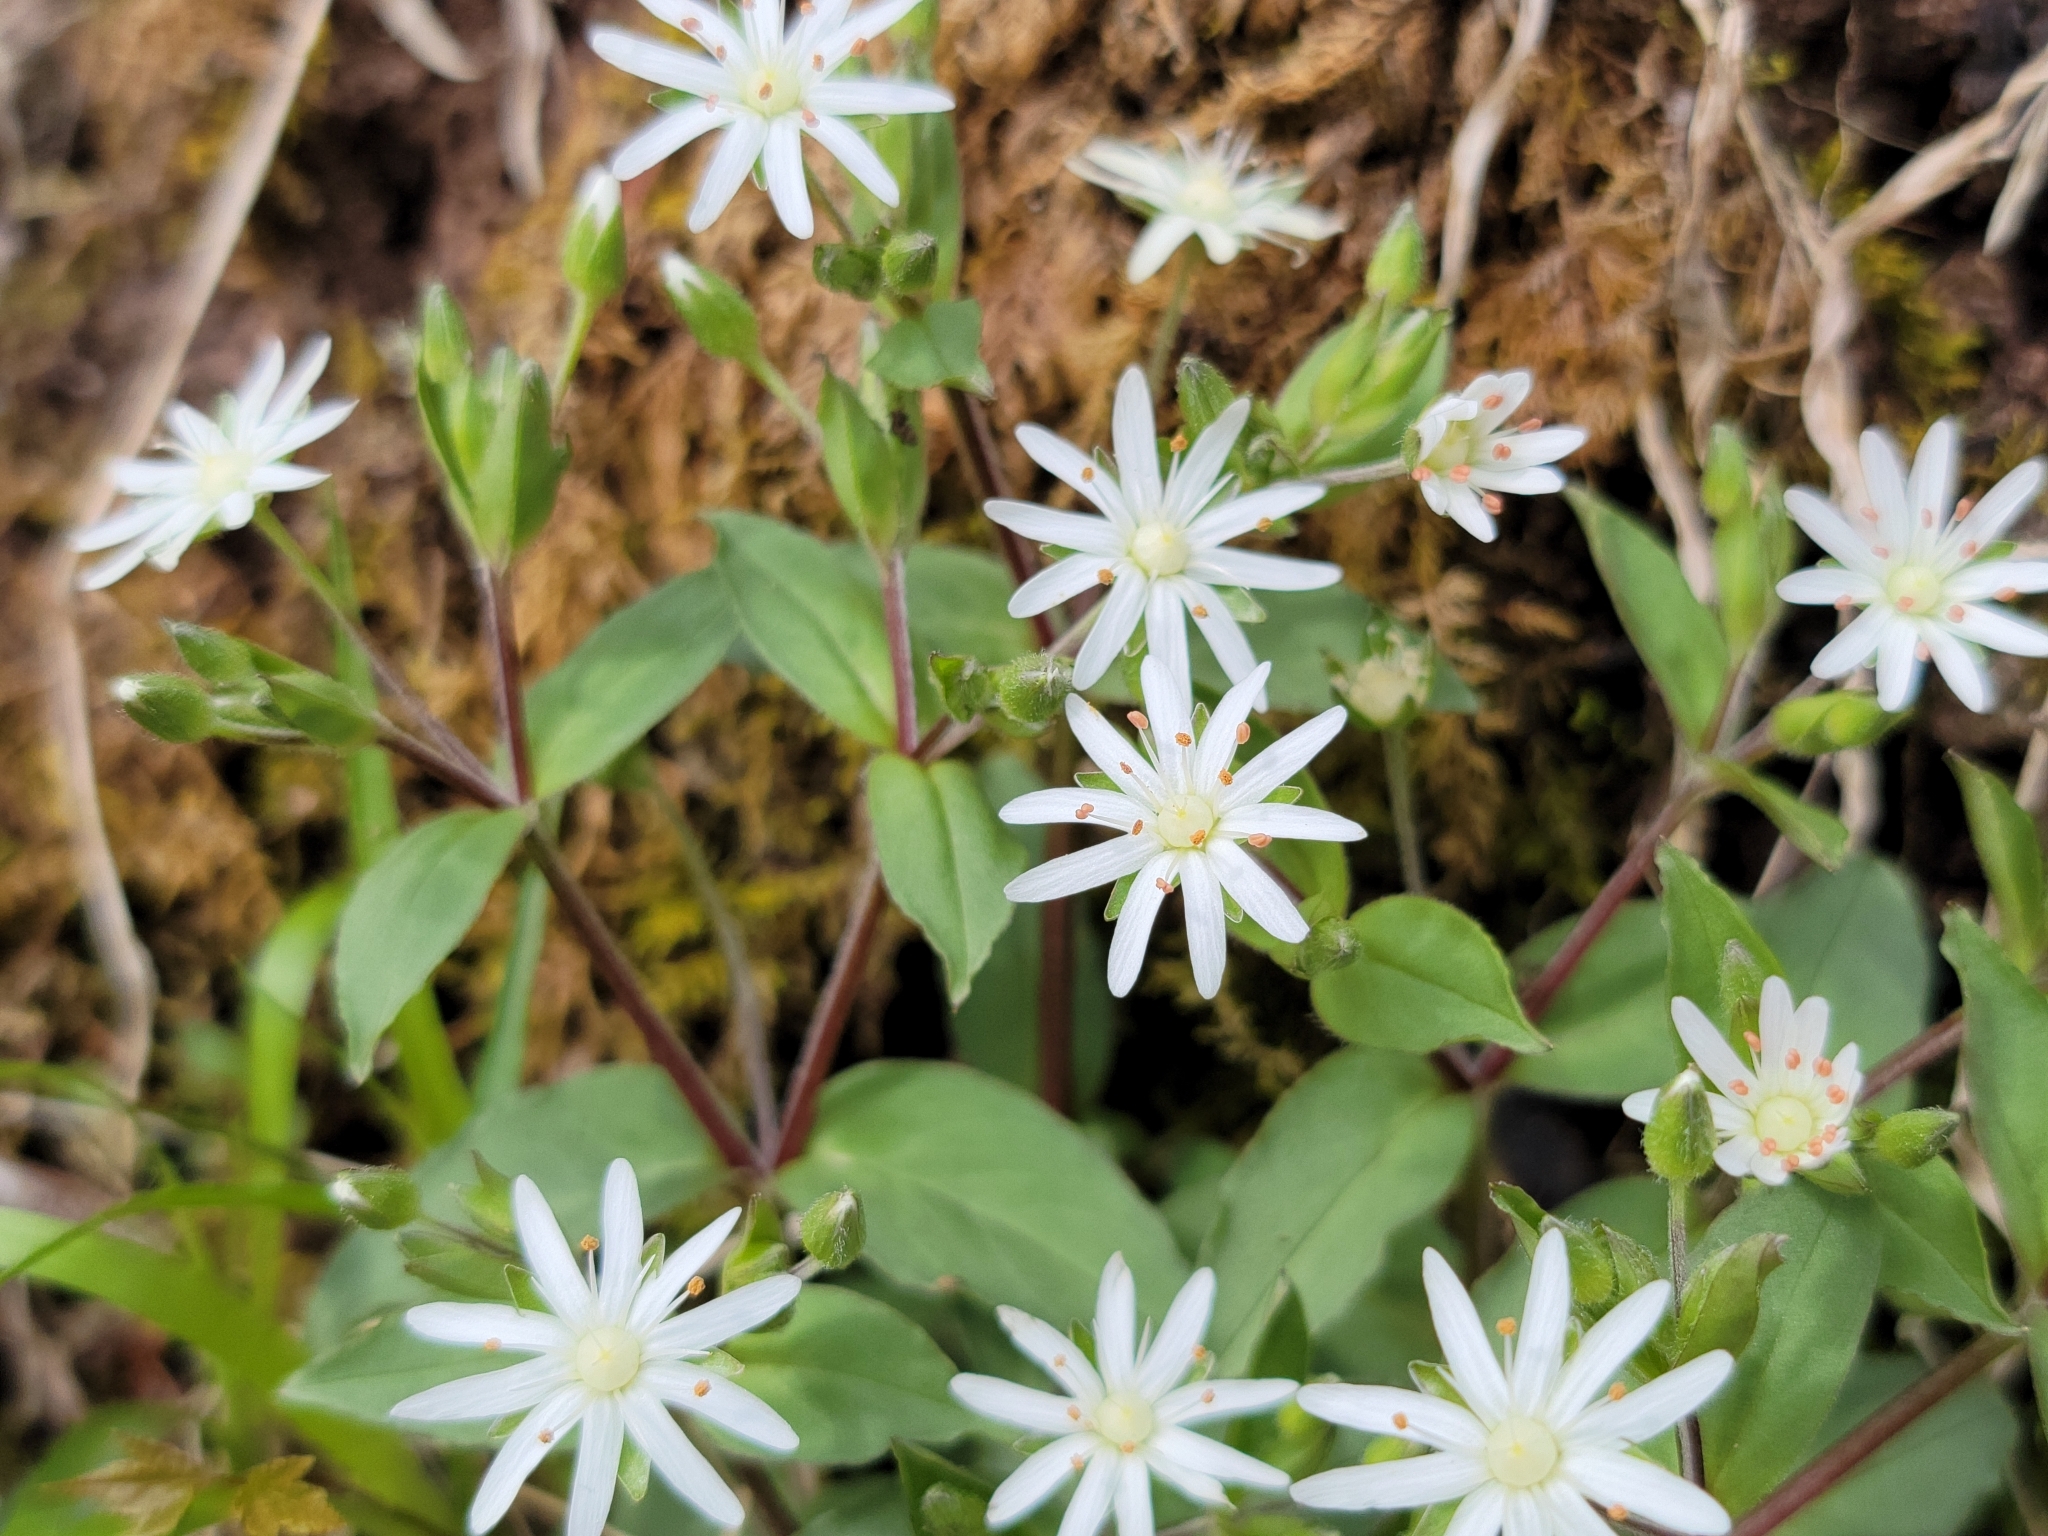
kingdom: Plantae
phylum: Tracheophyta
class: Magnoliopsida
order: Caryophyllales
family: Caryophyllaceae
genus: Stellaria
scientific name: Stellaria pubera
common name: Star chickweed
